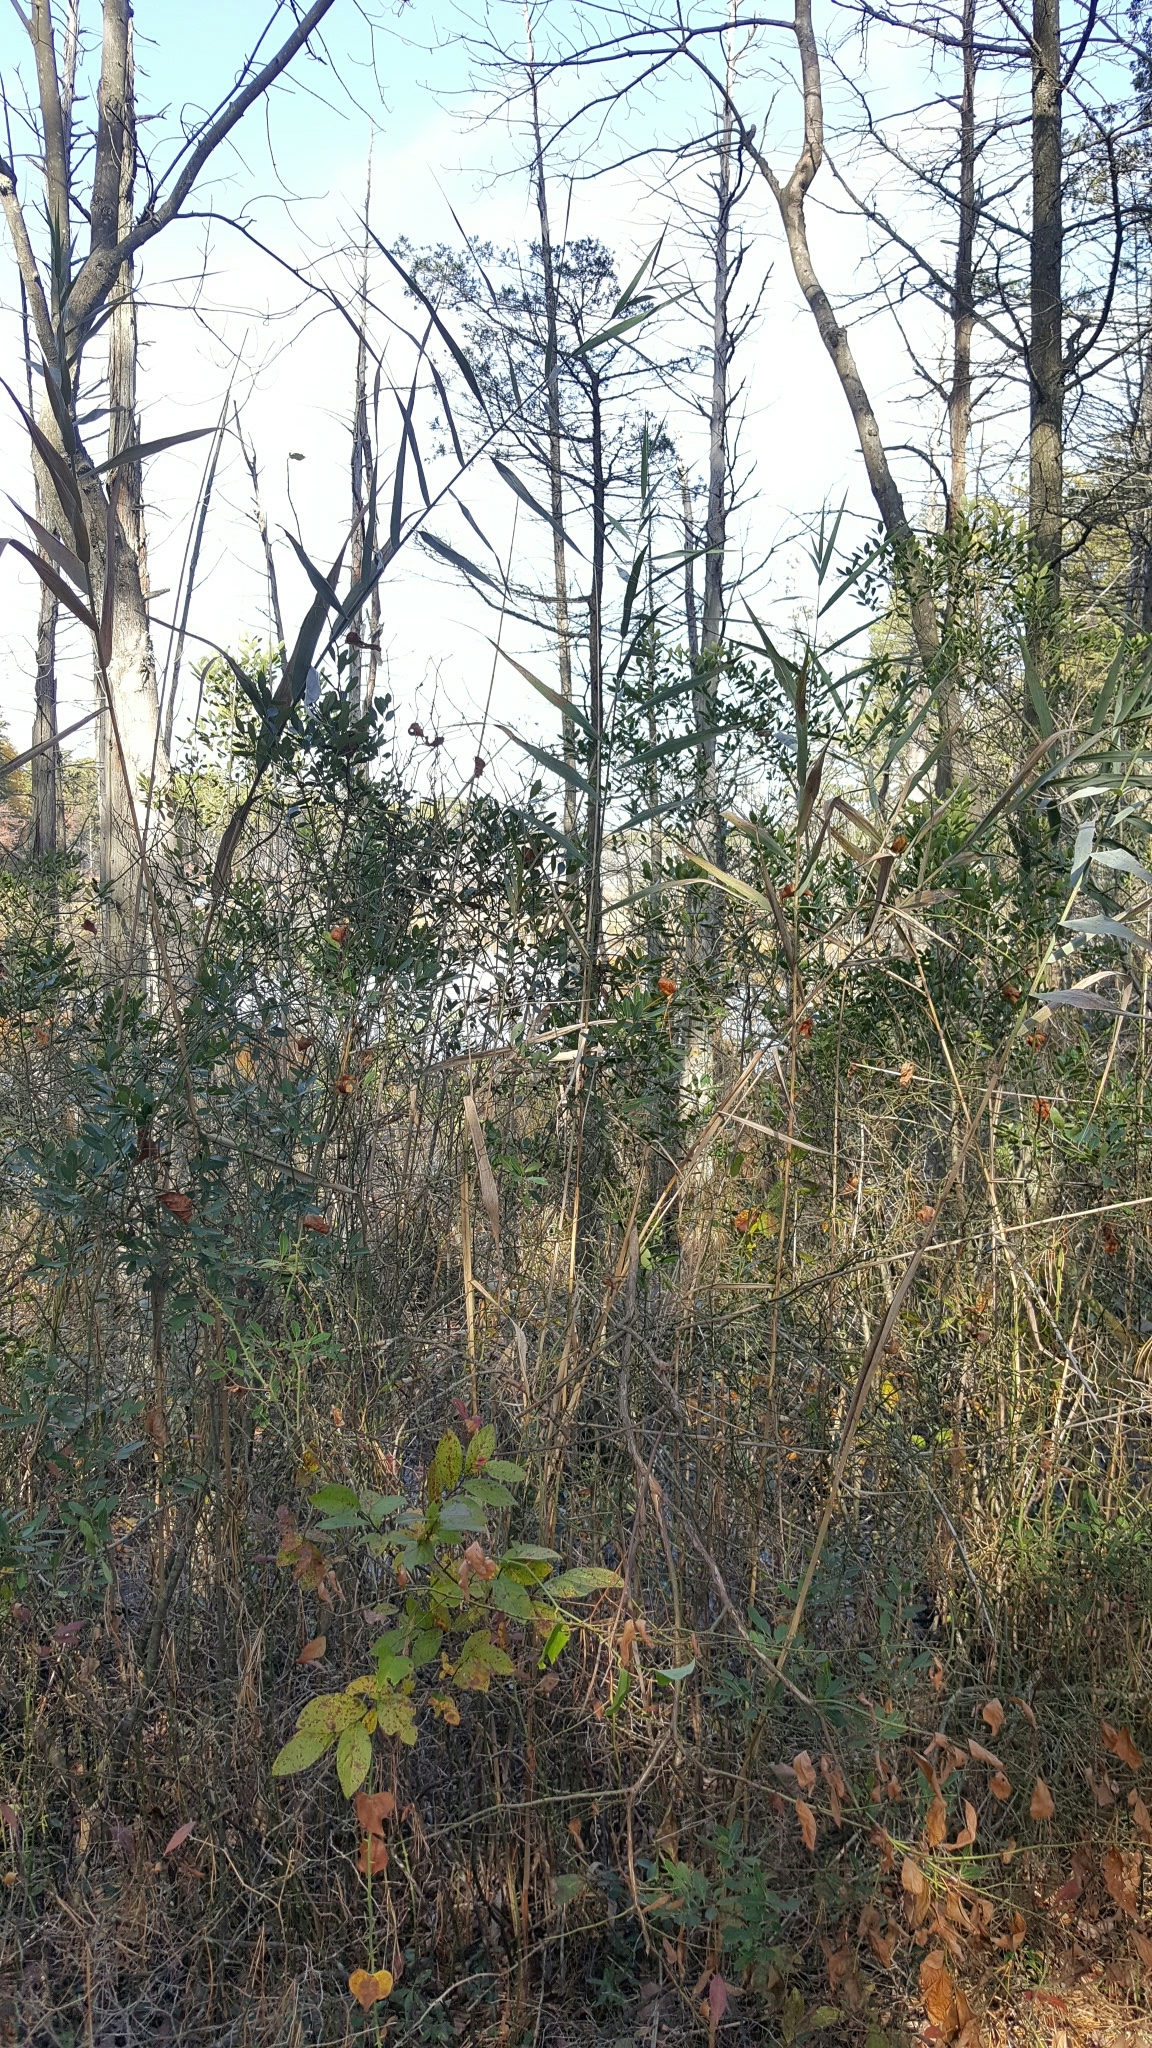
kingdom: Plantae
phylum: Tracheophyta
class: Liliopsida
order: Poales
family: Poaceae
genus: Phragmites
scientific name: Phragmites australis
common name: Common reed
